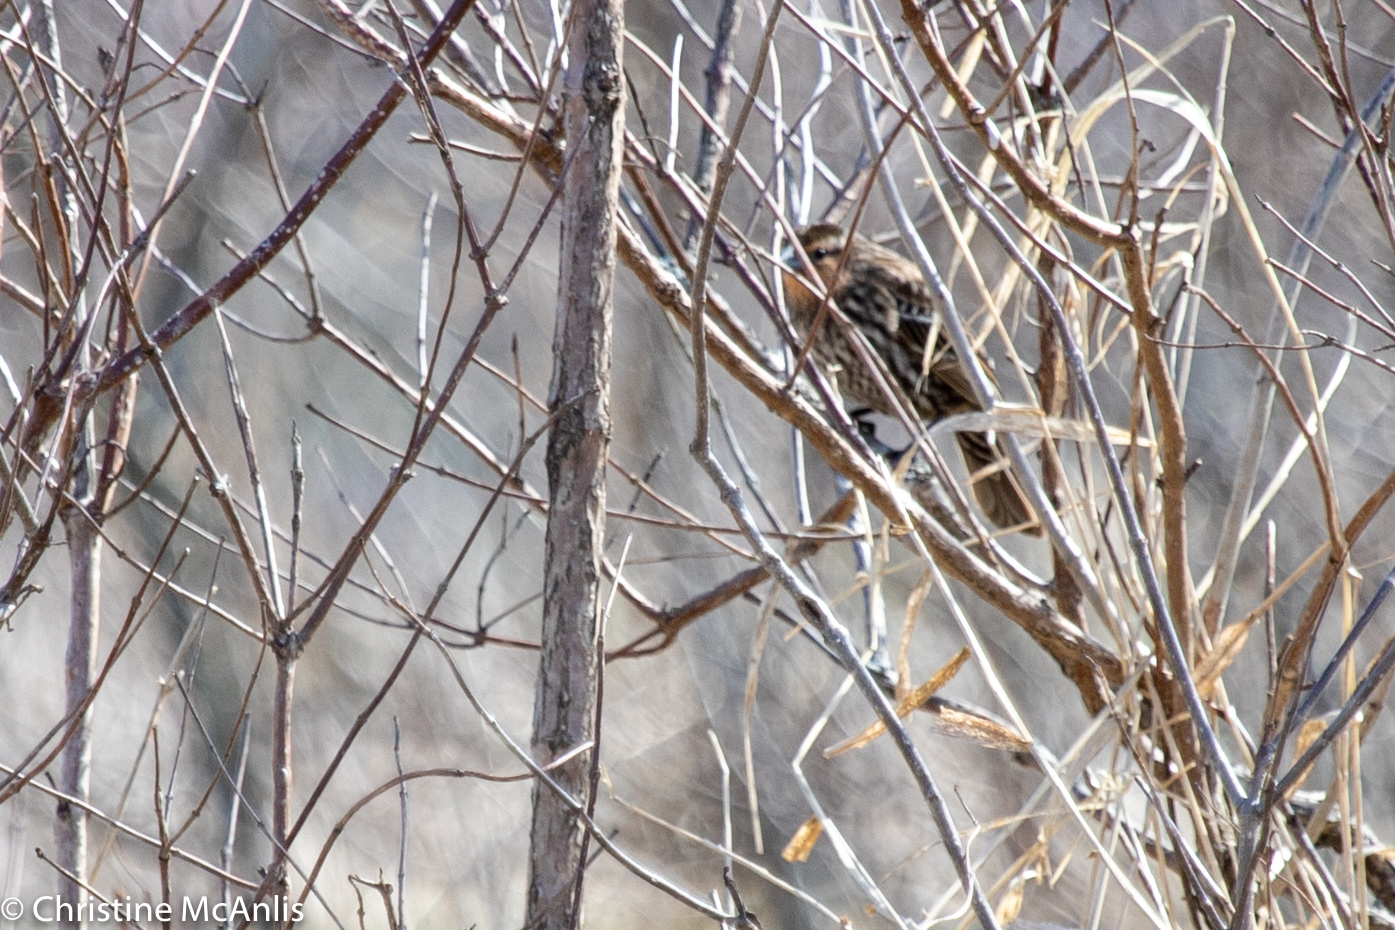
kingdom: Animalia
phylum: Chordata
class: Aves
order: Passeriformes
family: Icteridae
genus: Agelaius
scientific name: Agelaius phoeniceus
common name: Red-winged blackbird
